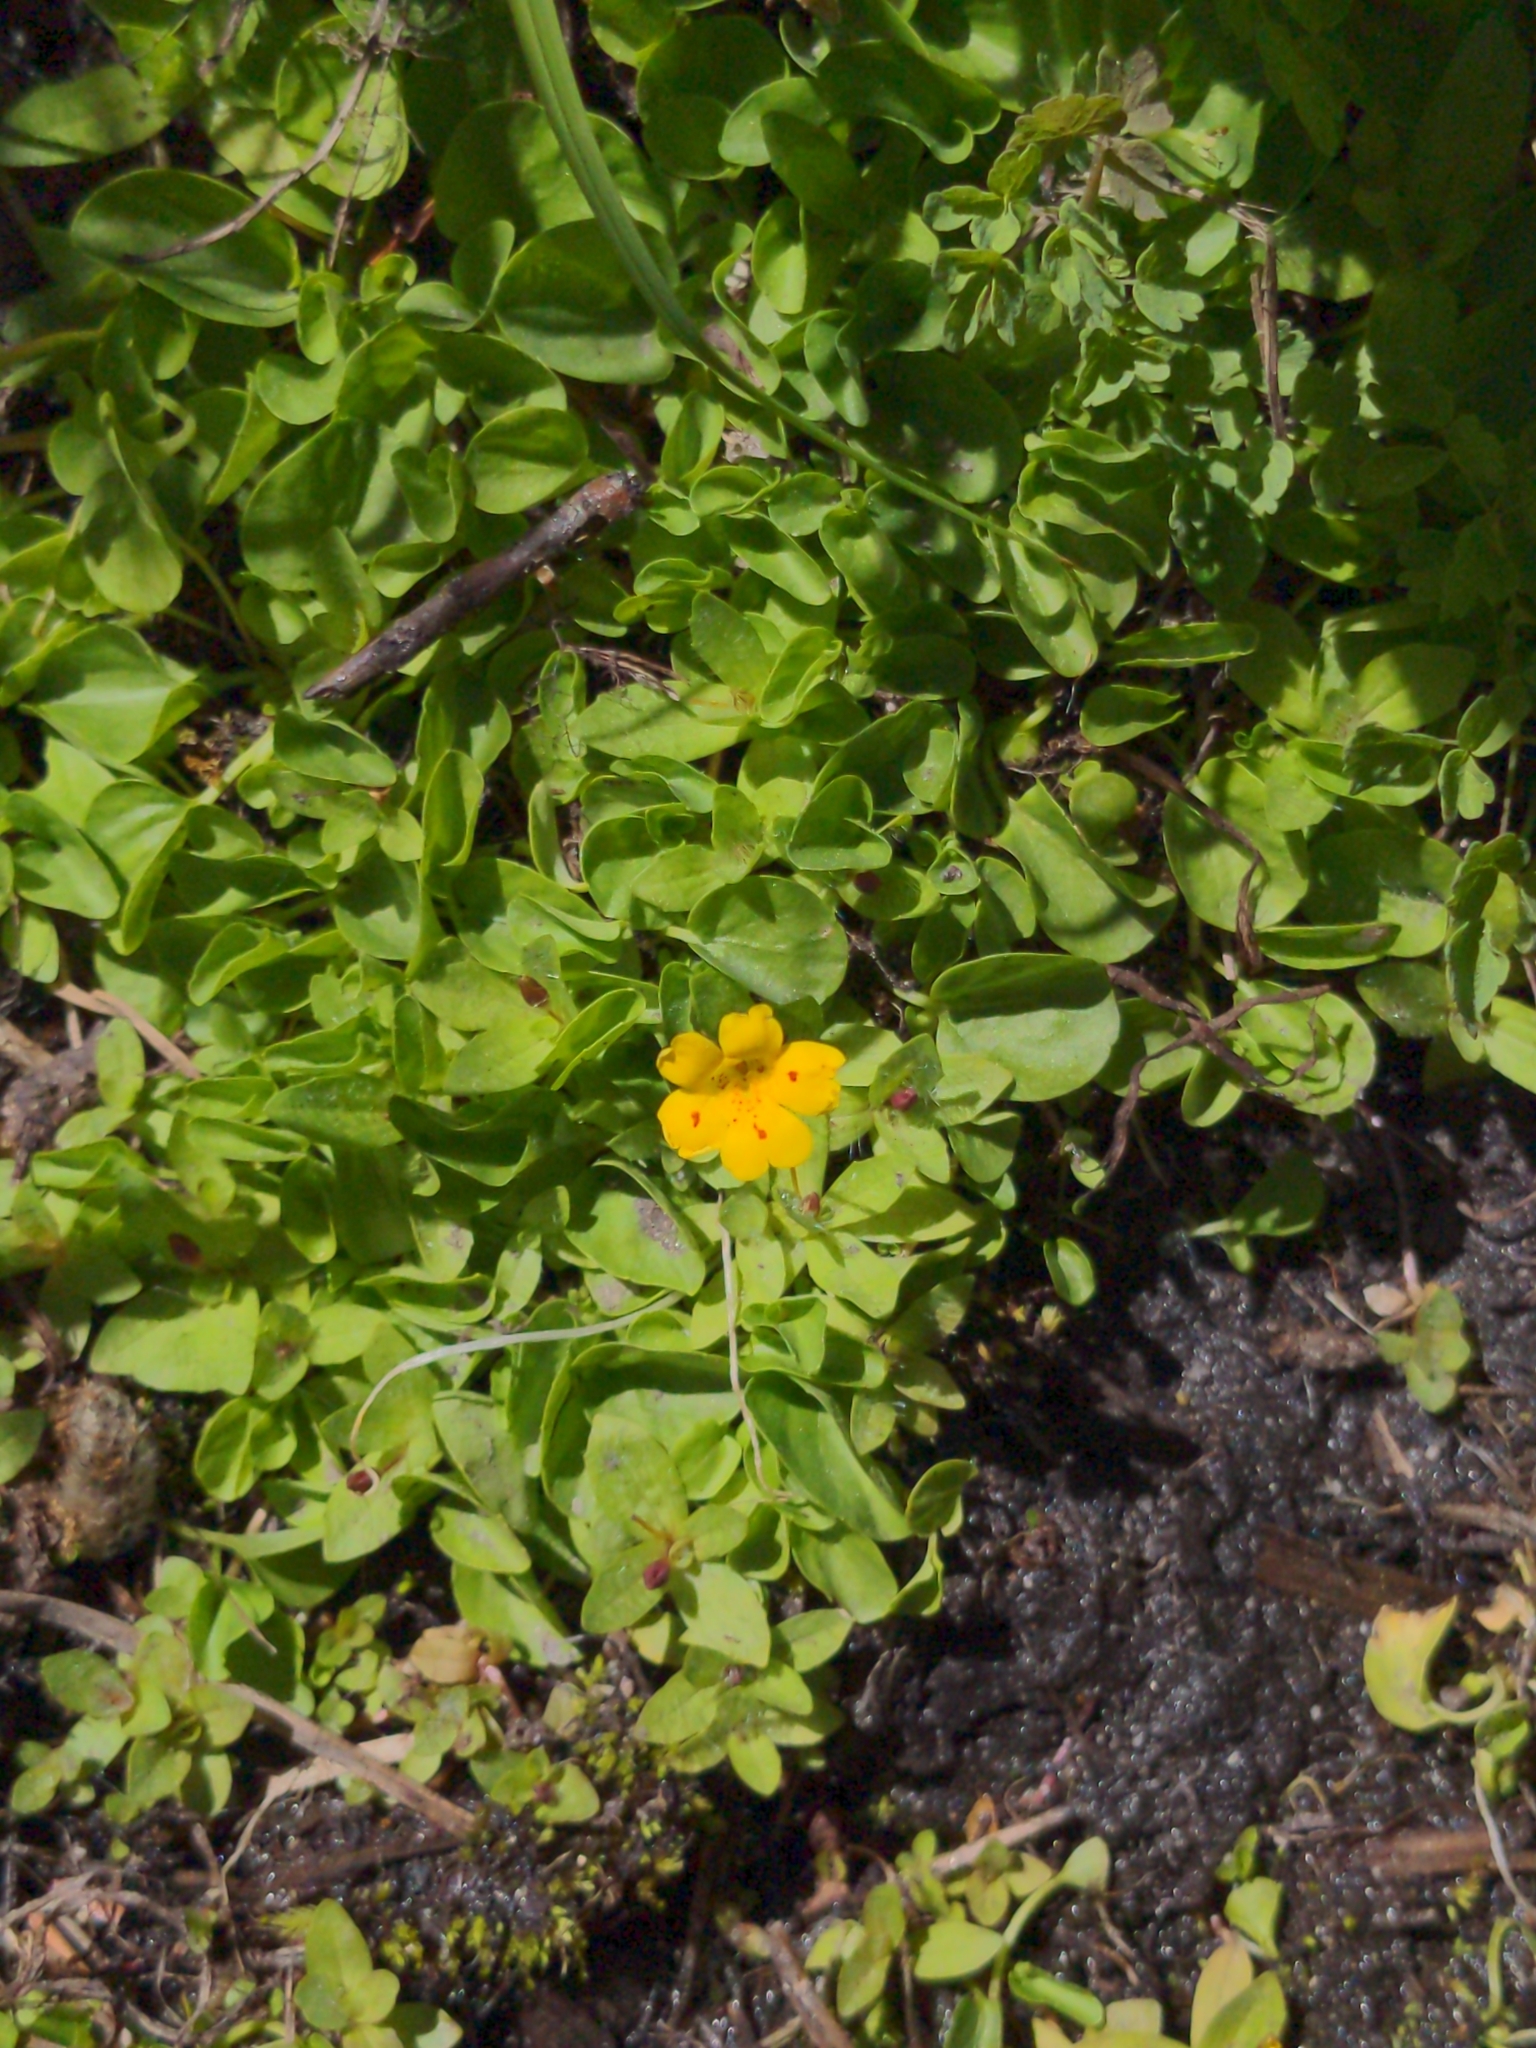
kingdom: Plantae
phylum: Tracheophyta
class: Magnoliopsida
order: Lamiales
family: Phrymaceae
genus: Erythranthe
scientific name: Erythranthe primuloides
